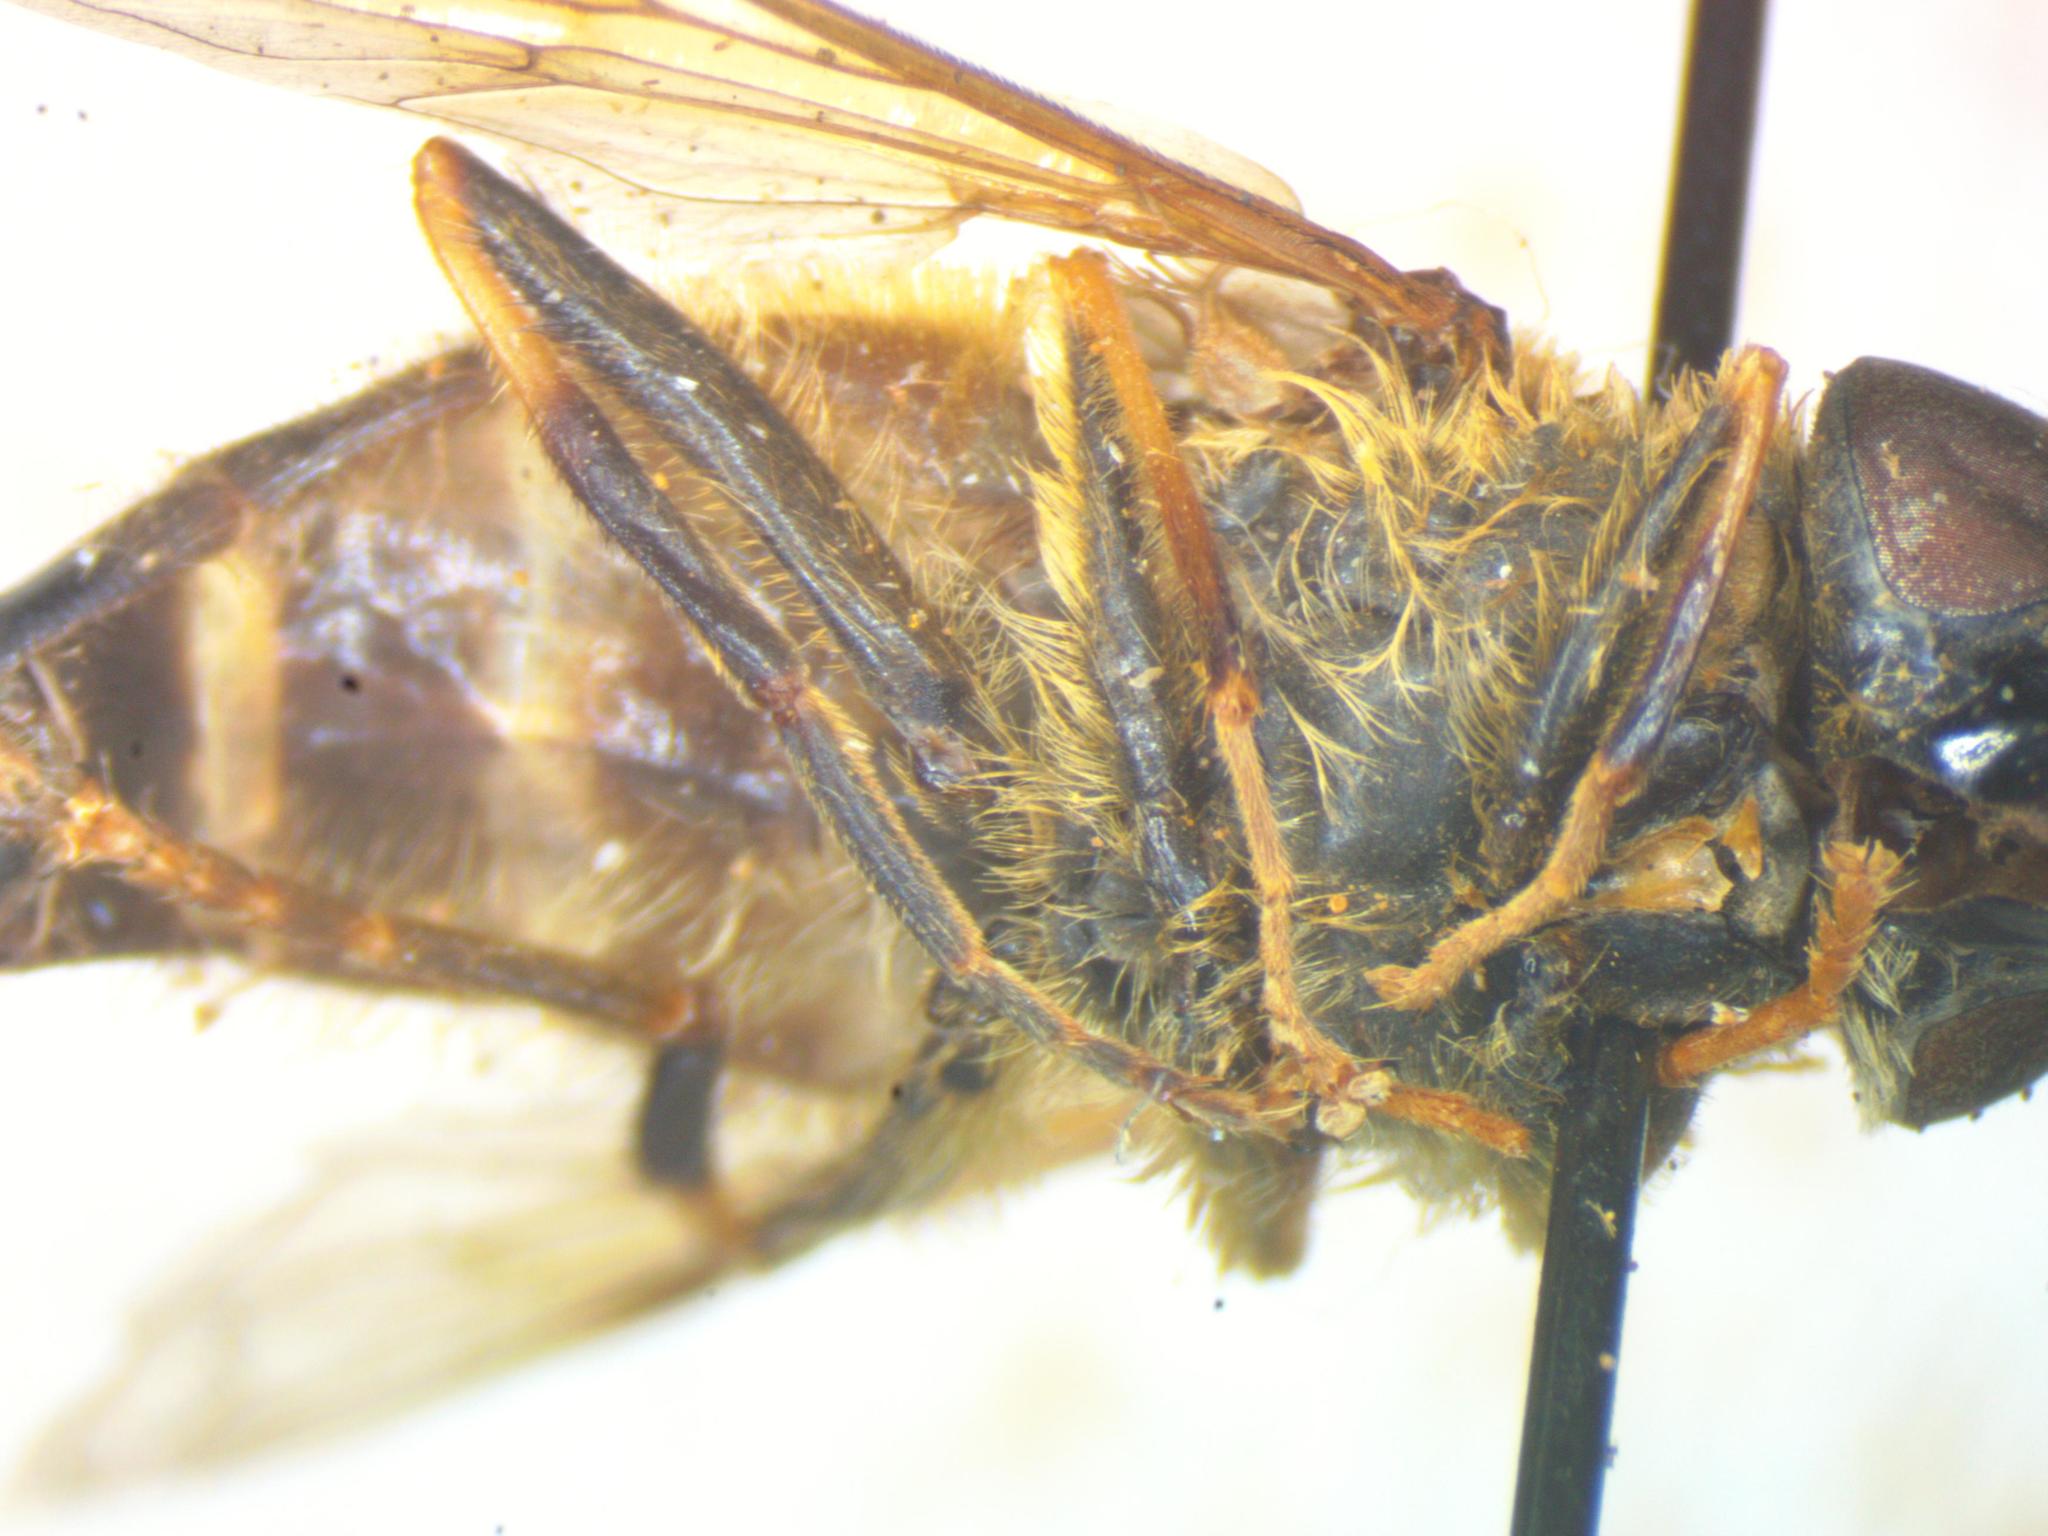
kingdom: Animalia
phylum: Arthropoda
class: Insecta
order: Diptera
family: Syrphidae
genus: Eristalis
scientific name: Eristalis pertinax
